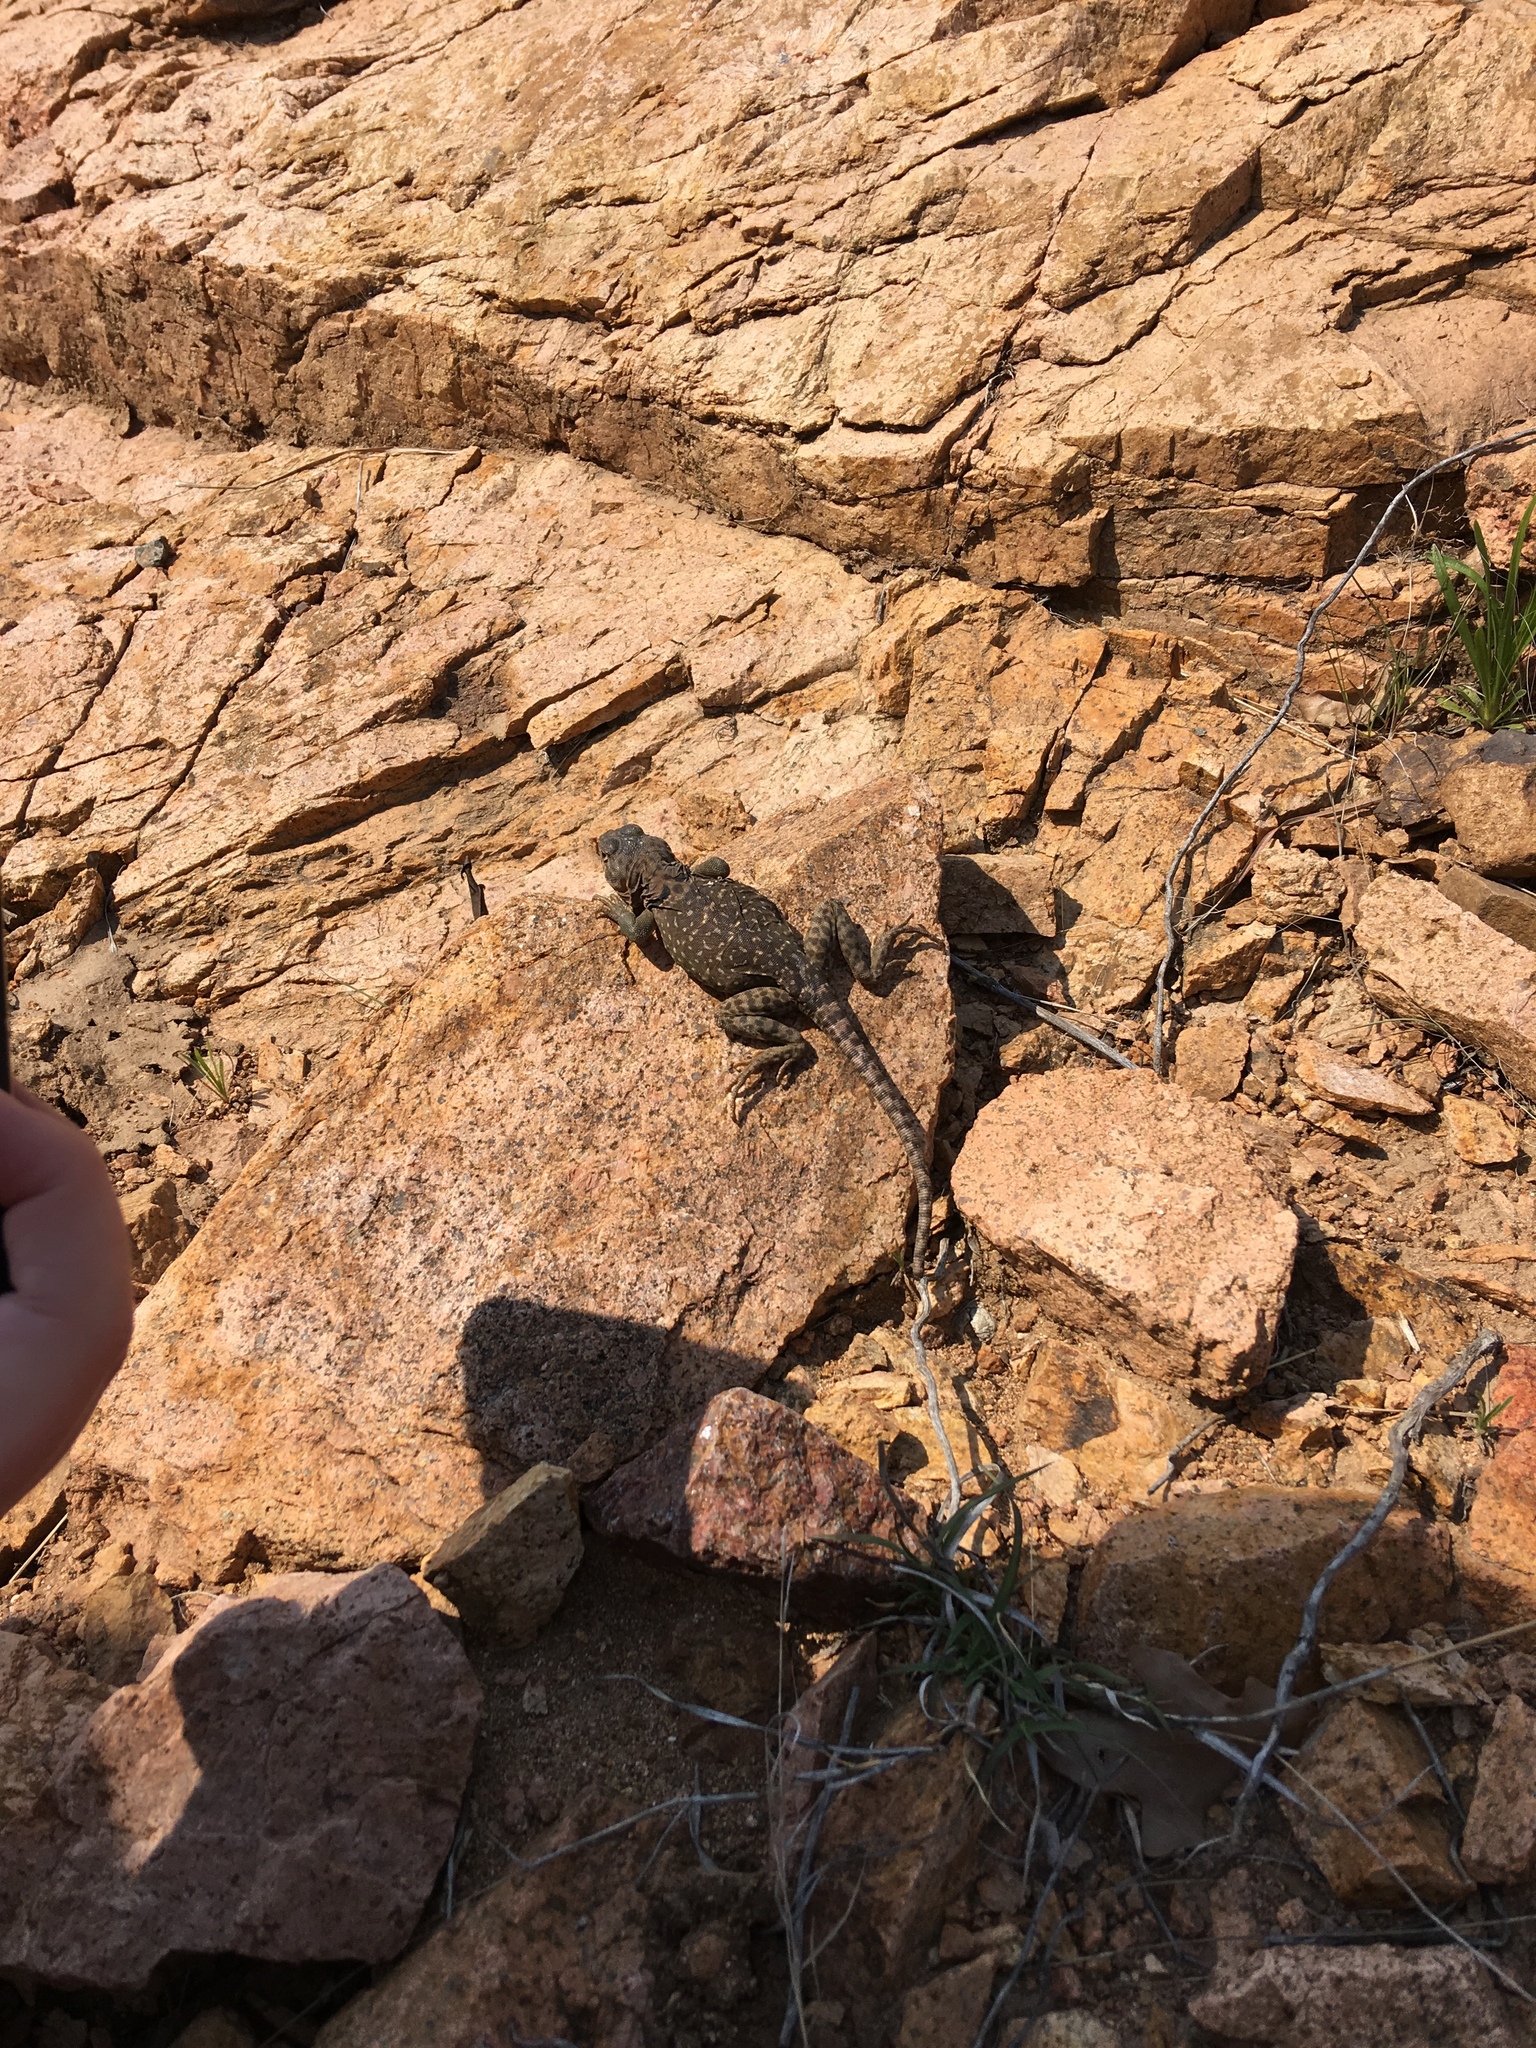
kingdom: Animalia
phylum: Chordata
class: Squamata
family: Crotaphytidae
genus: Crotaphytus
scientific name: Crotaphytus collaris
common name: Collared lizard
